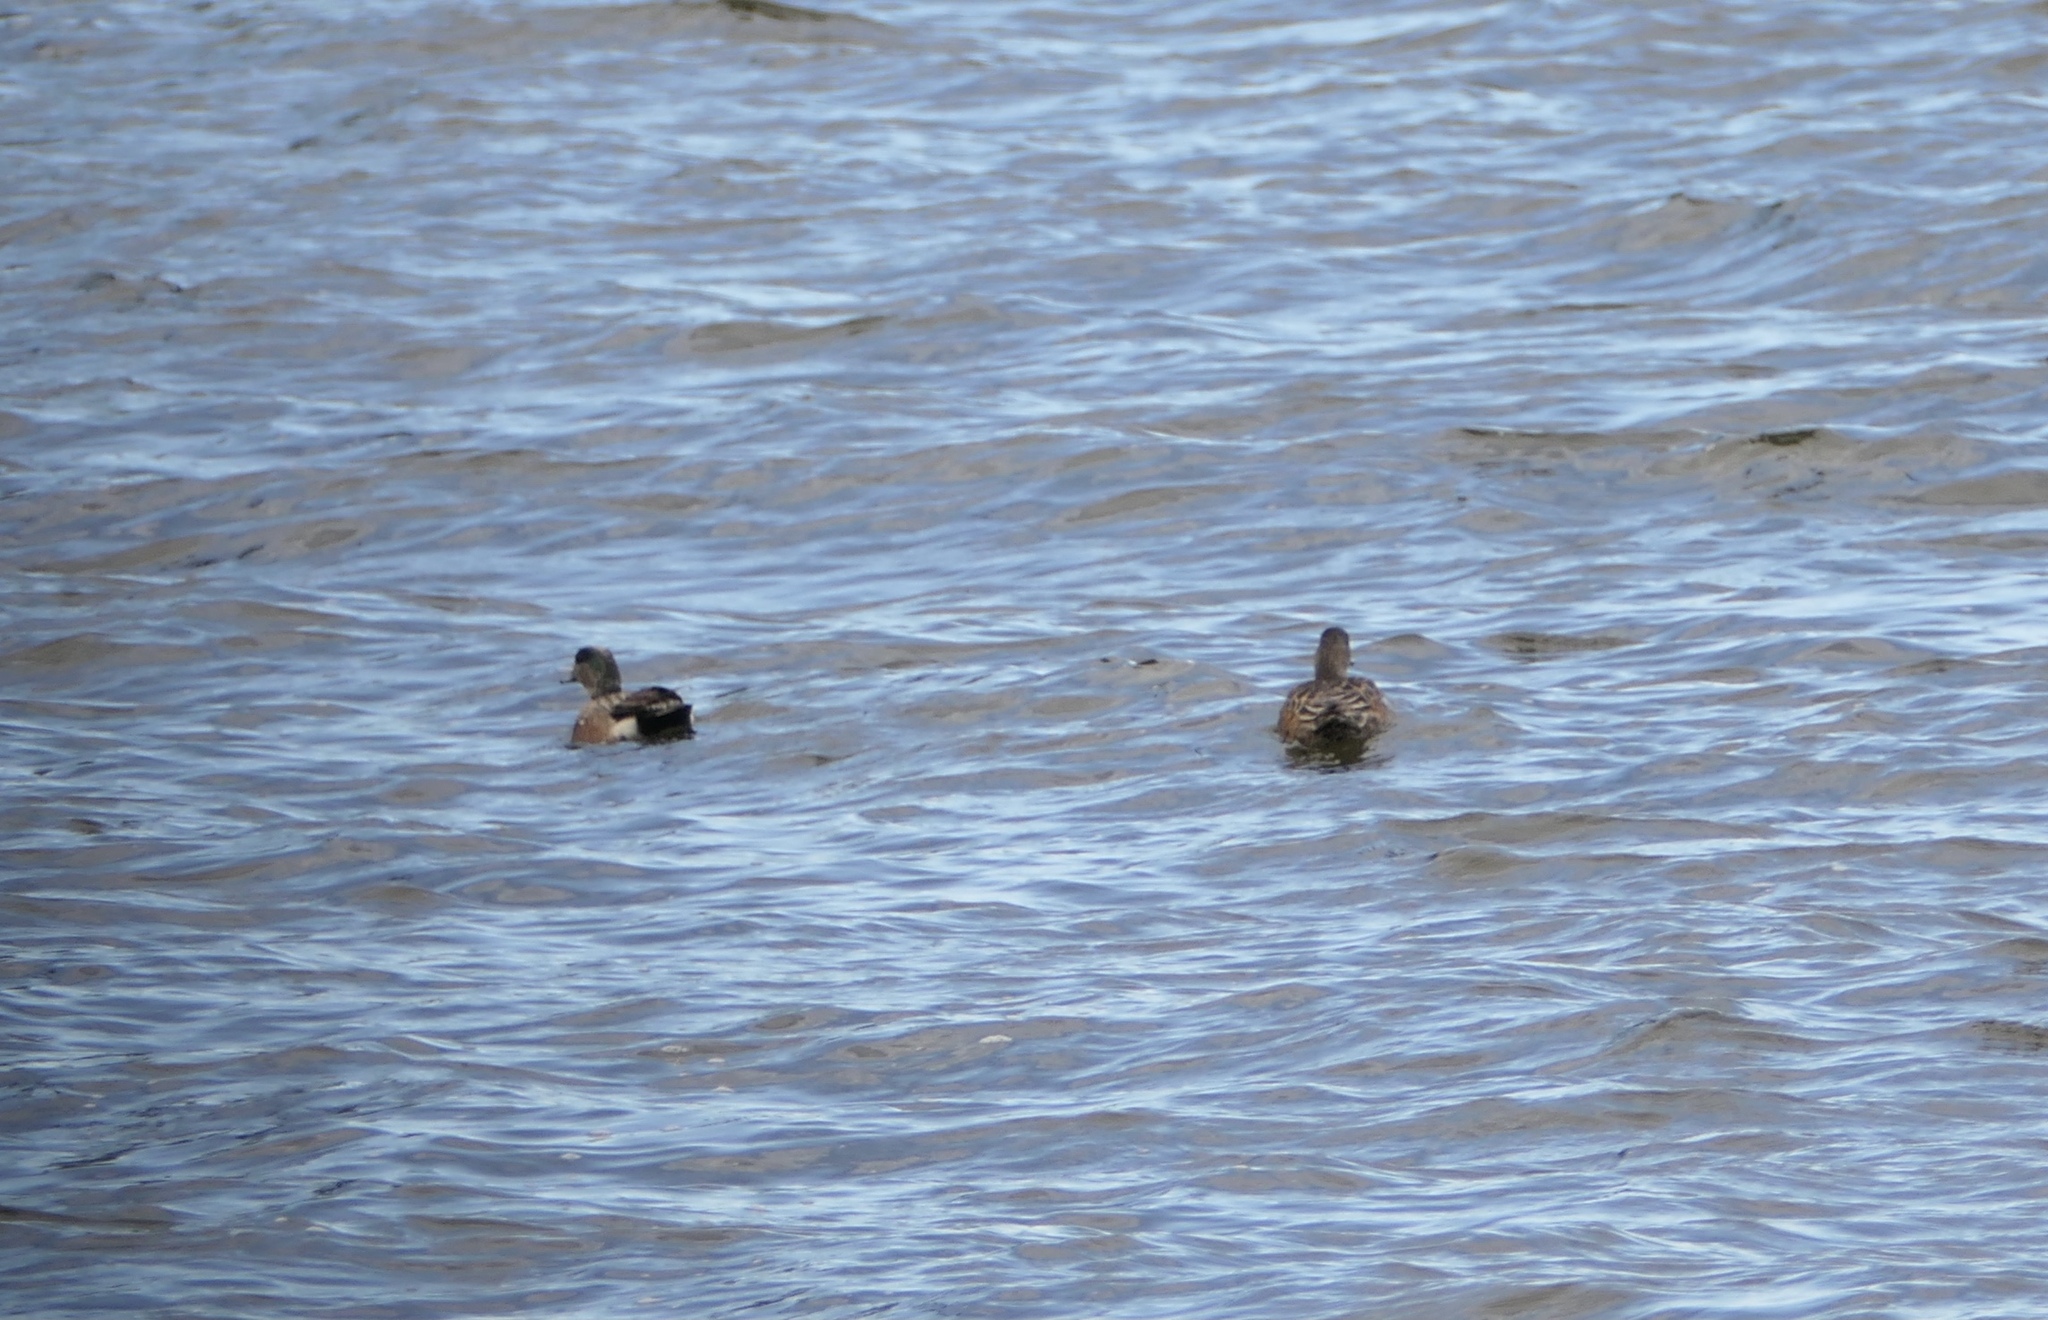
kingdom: Animalia
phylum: Chordata
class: Aves
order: Anseriformes
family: Anatidae
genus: Mareca
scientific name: Mareca americana
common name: American wigeon
